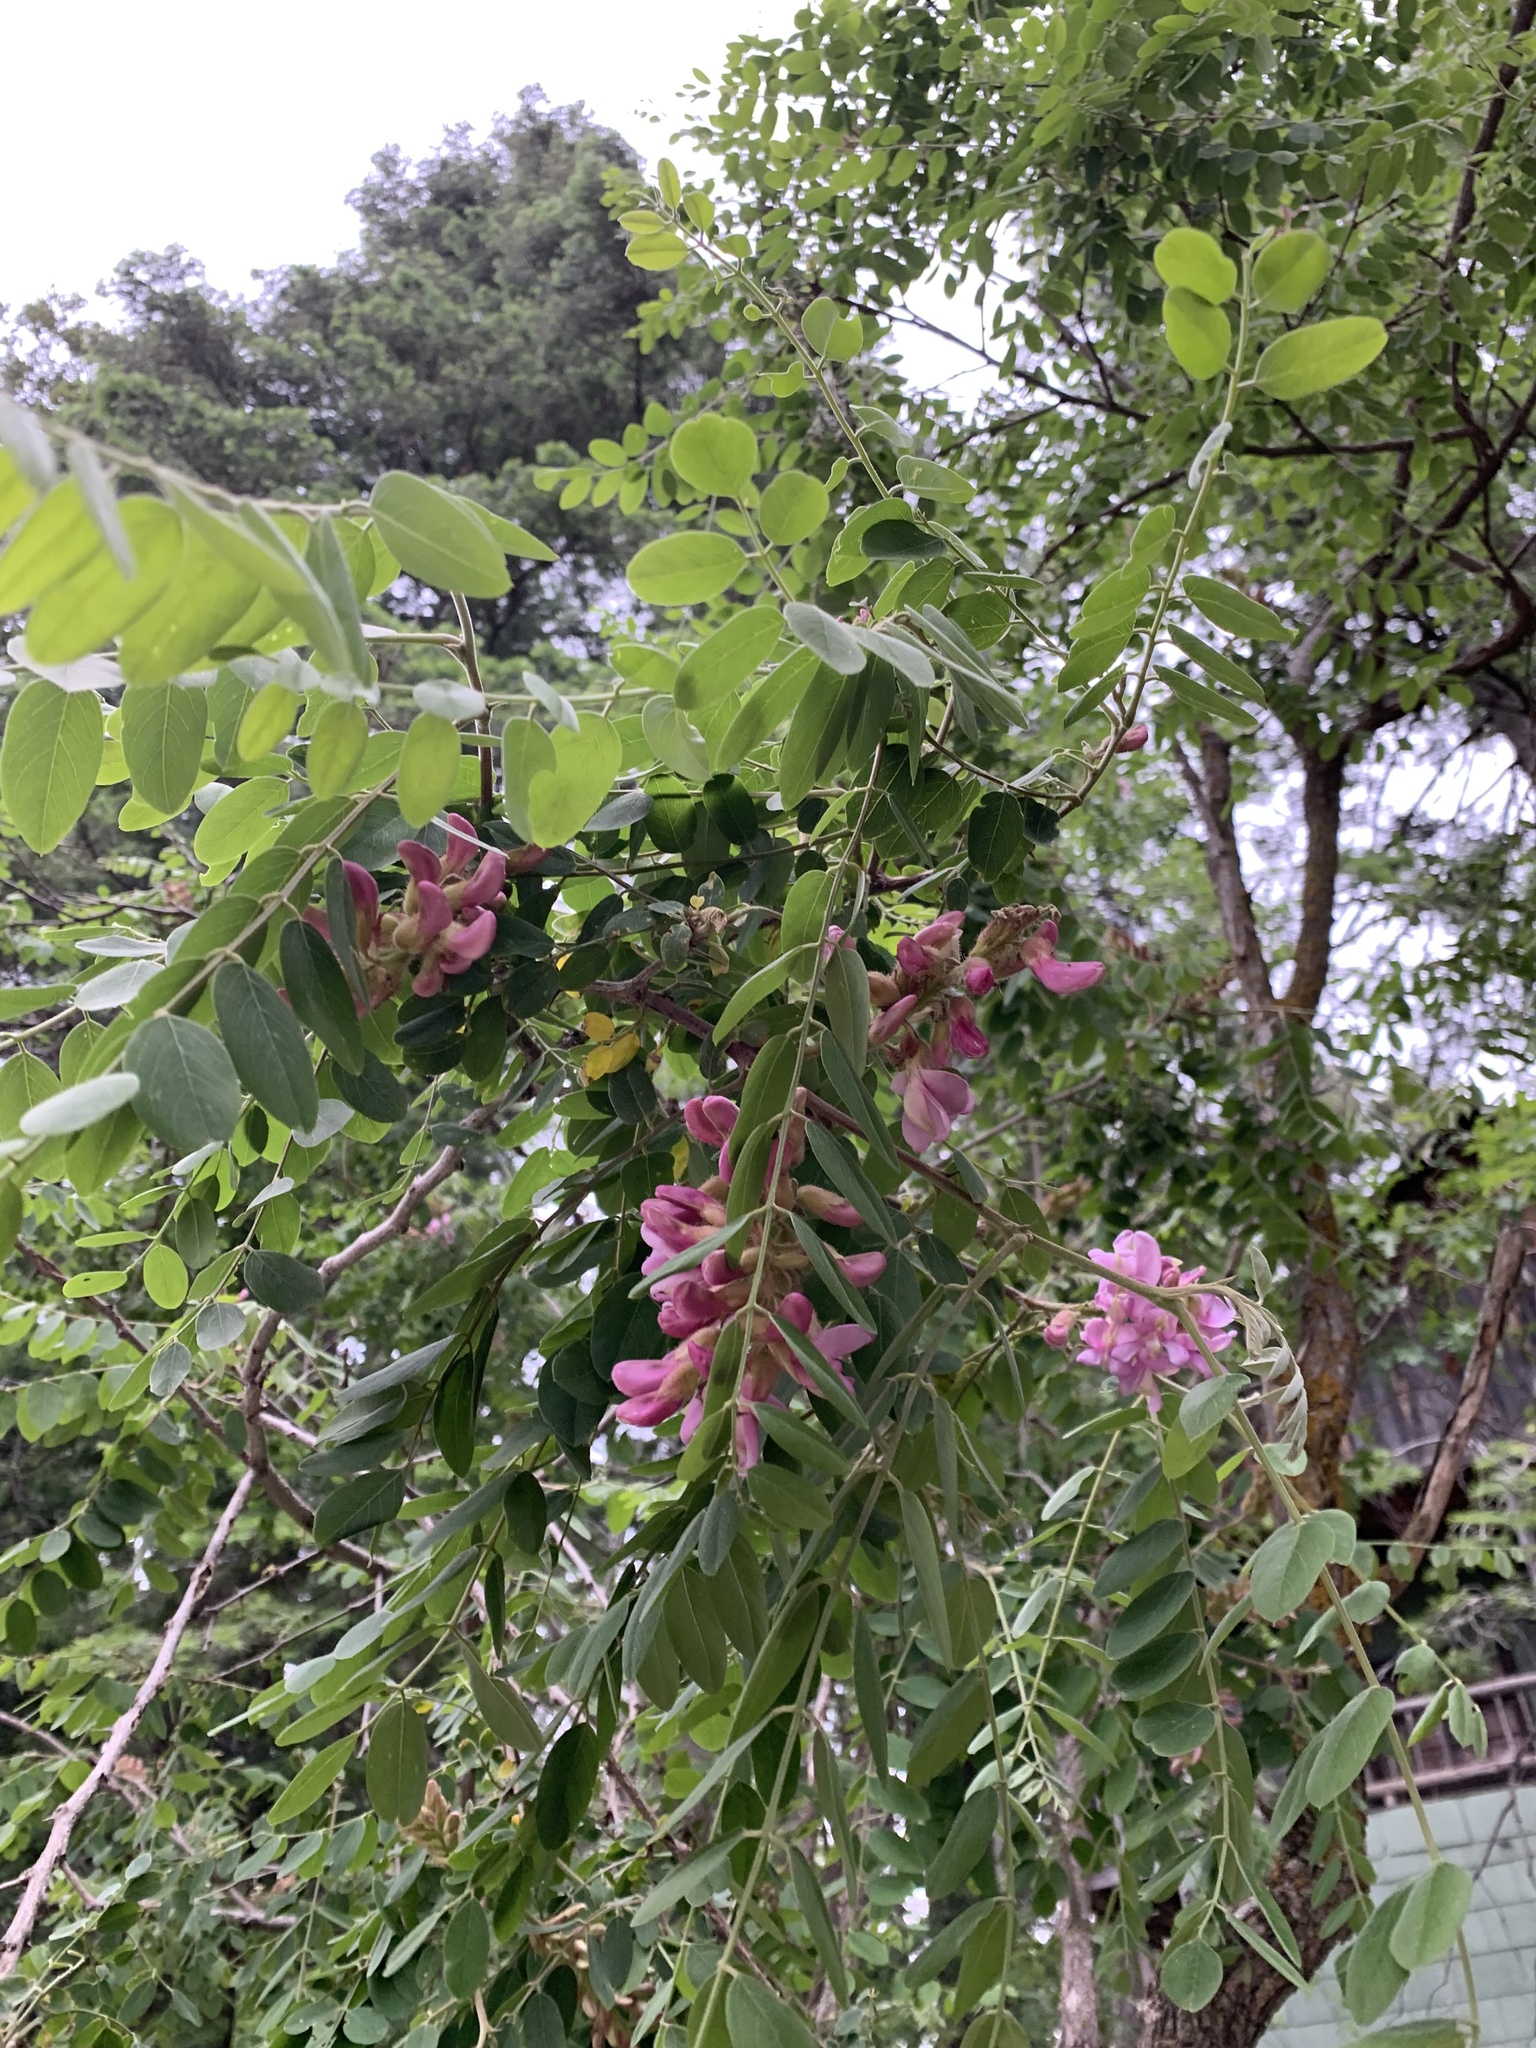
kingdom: Plantae
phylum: Tracheophyta
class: Magnoliopsida
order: Fabales
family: Fabaceae
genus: Robinia
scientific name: Robinia neomexicana
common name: New mexico locust
